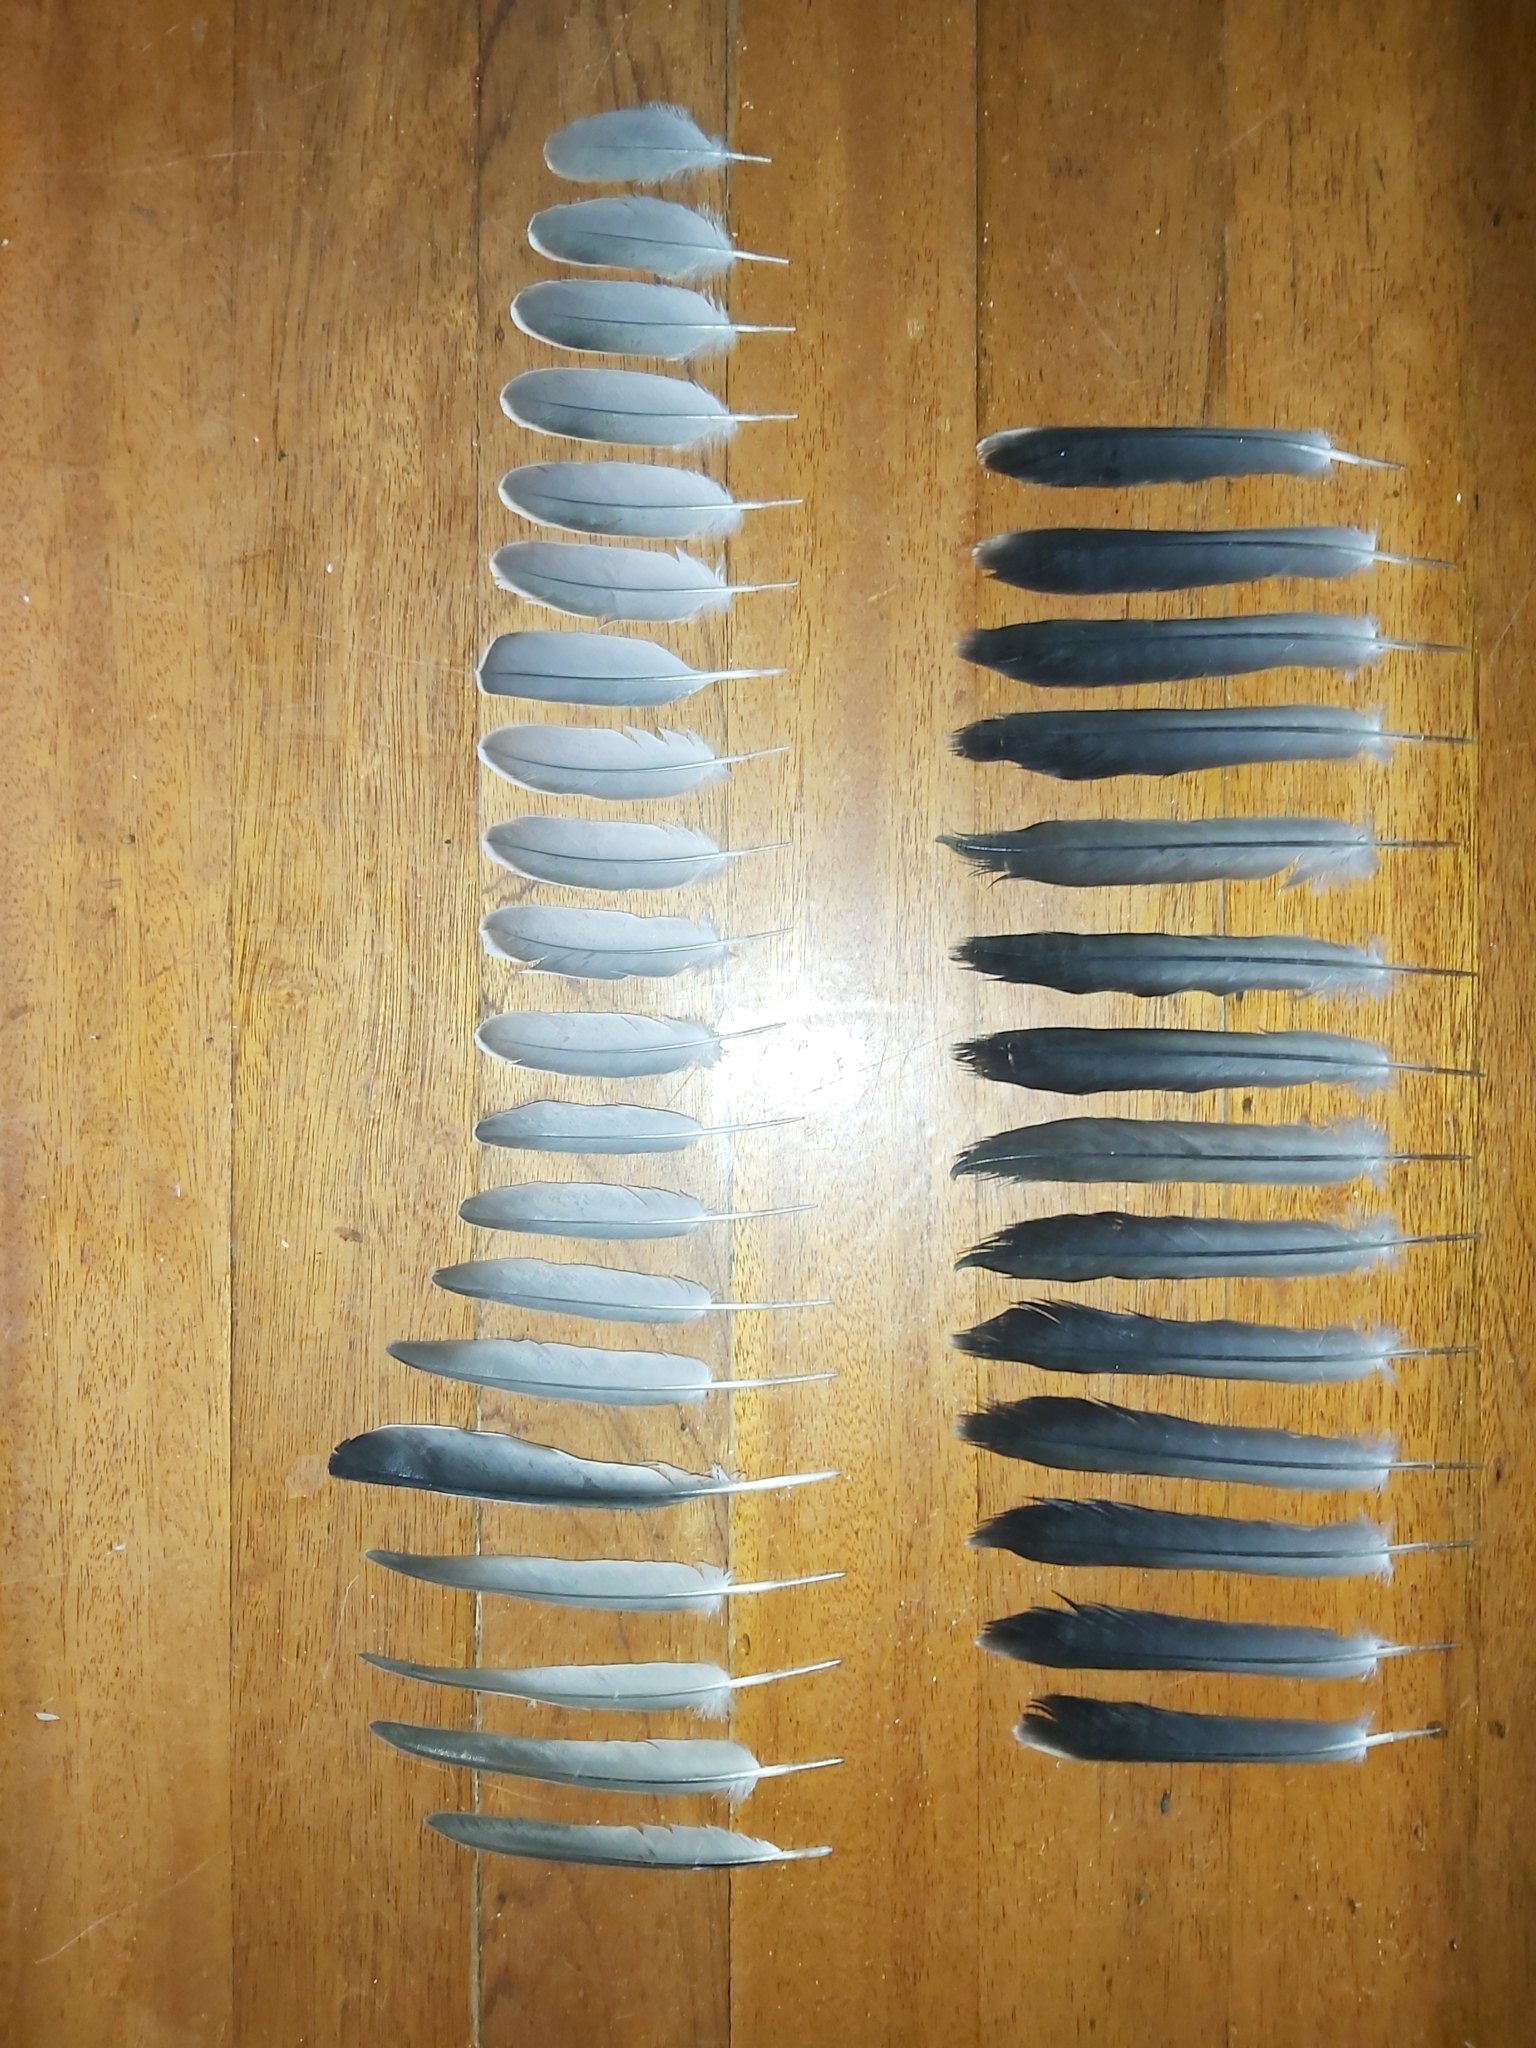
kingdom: Animalia
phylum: Chordata
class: Aves
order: Columbiformes
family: Columbidae
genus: Ocyphaps
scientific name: Ocyphaps lophotes
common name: Crested pigeon
